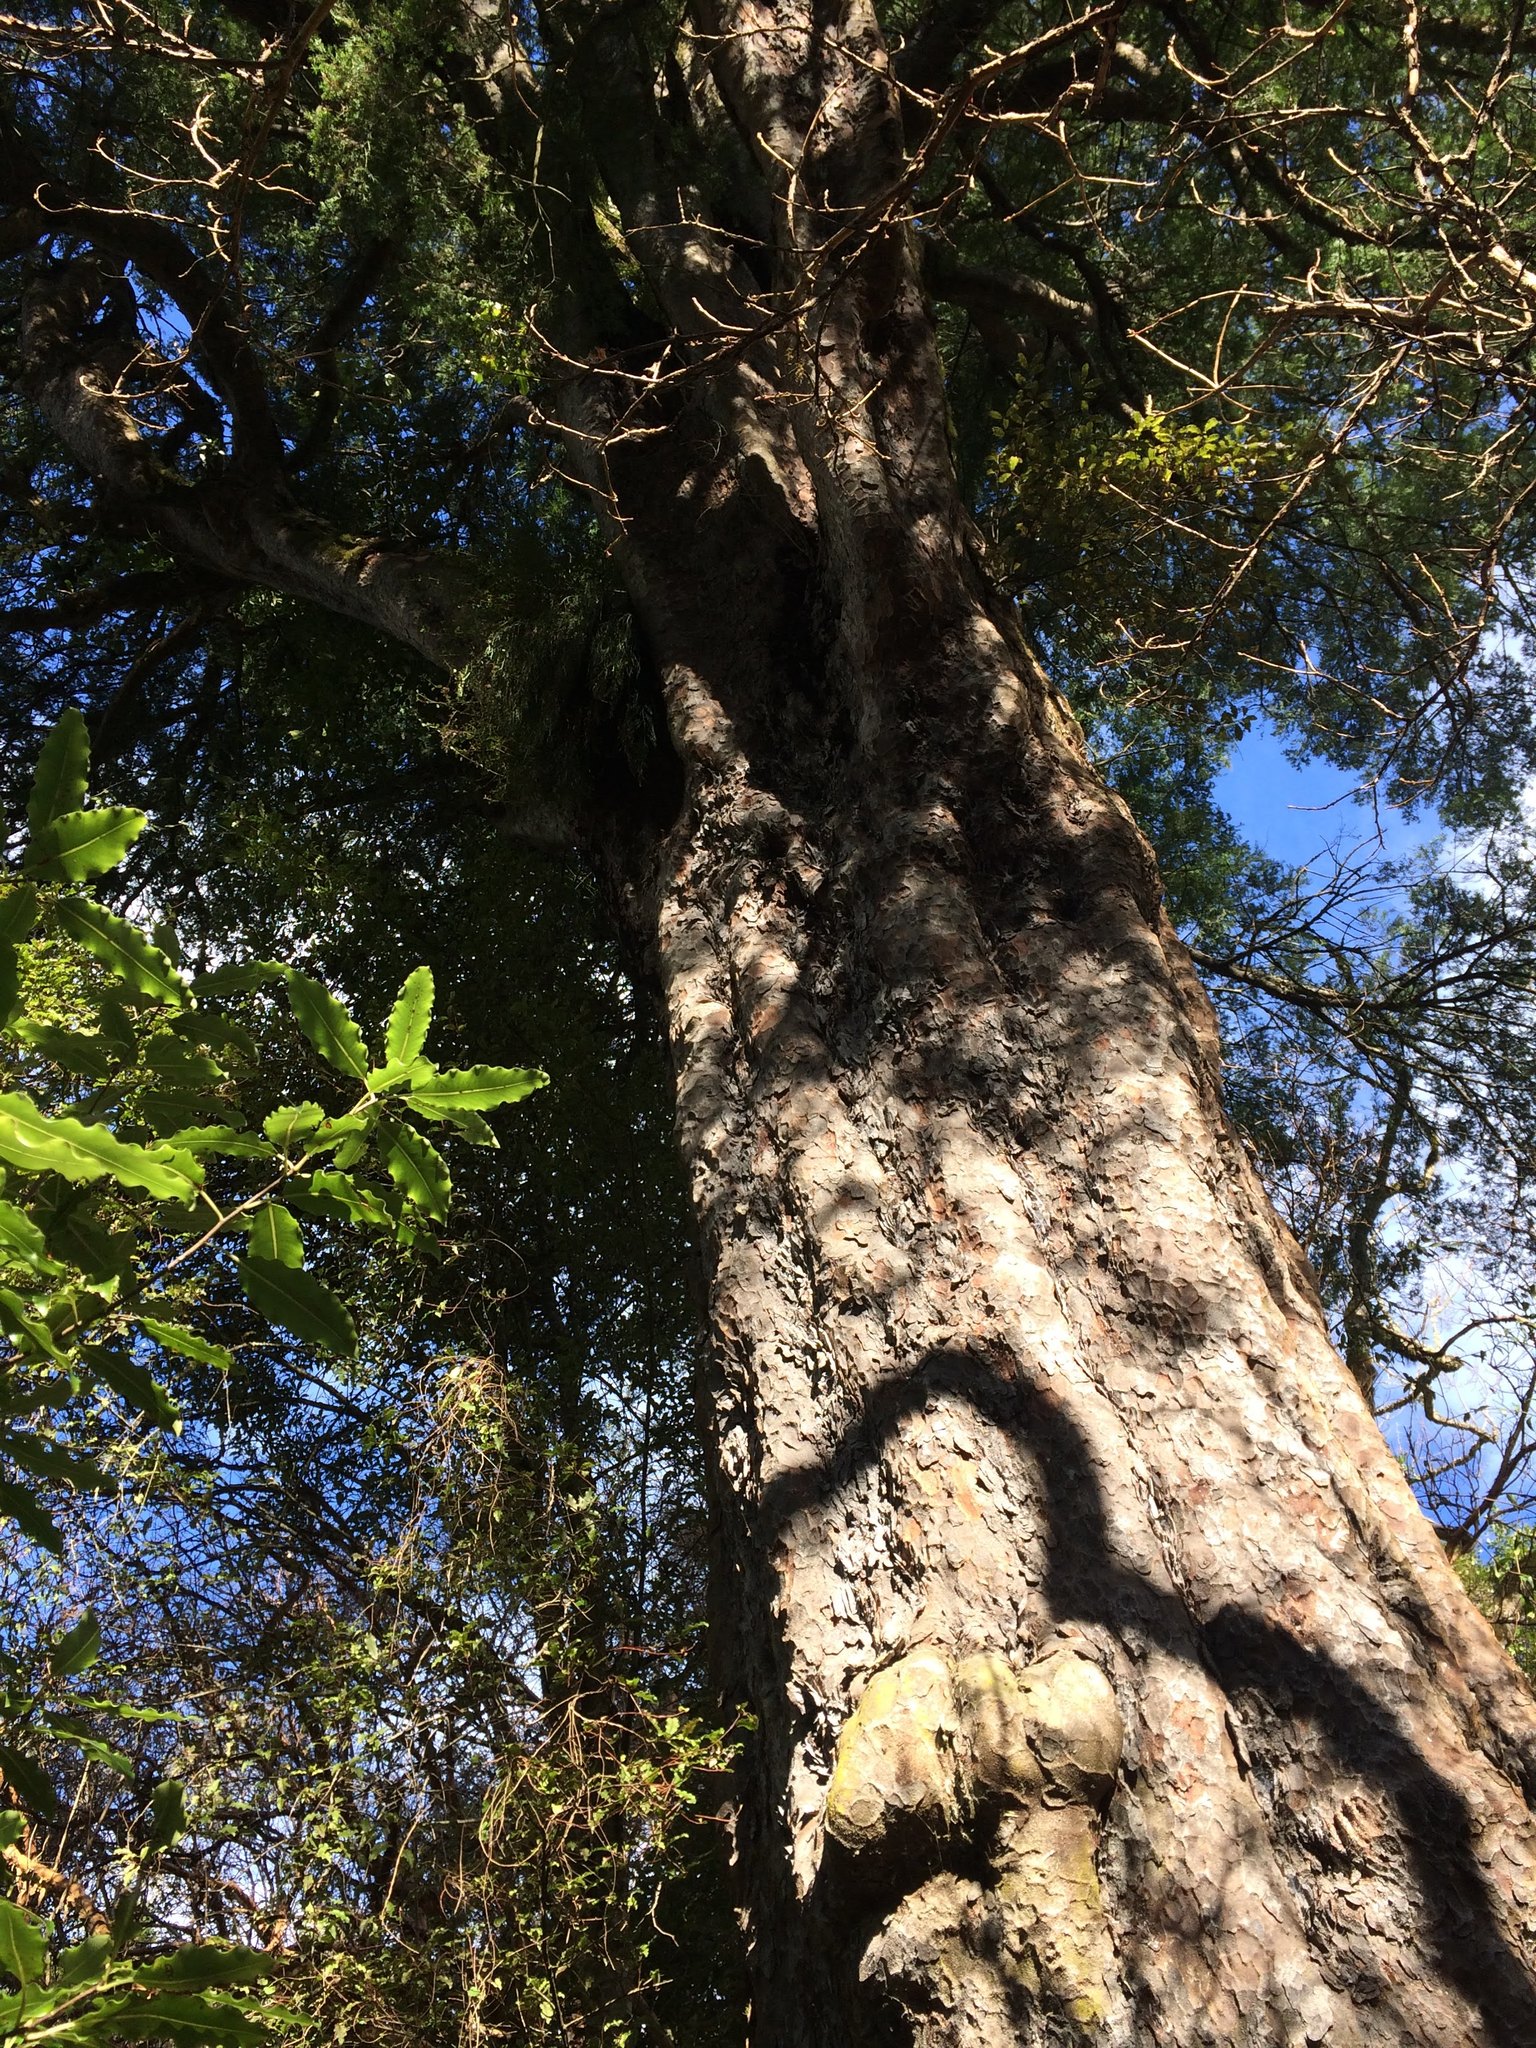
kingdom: Plantae
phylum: Tracheophyta
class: Pinopsida
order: Pinales
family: Podocarpaceae
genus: Prumnopitys
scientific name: Prumnopitys taxifolia
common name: Matai
